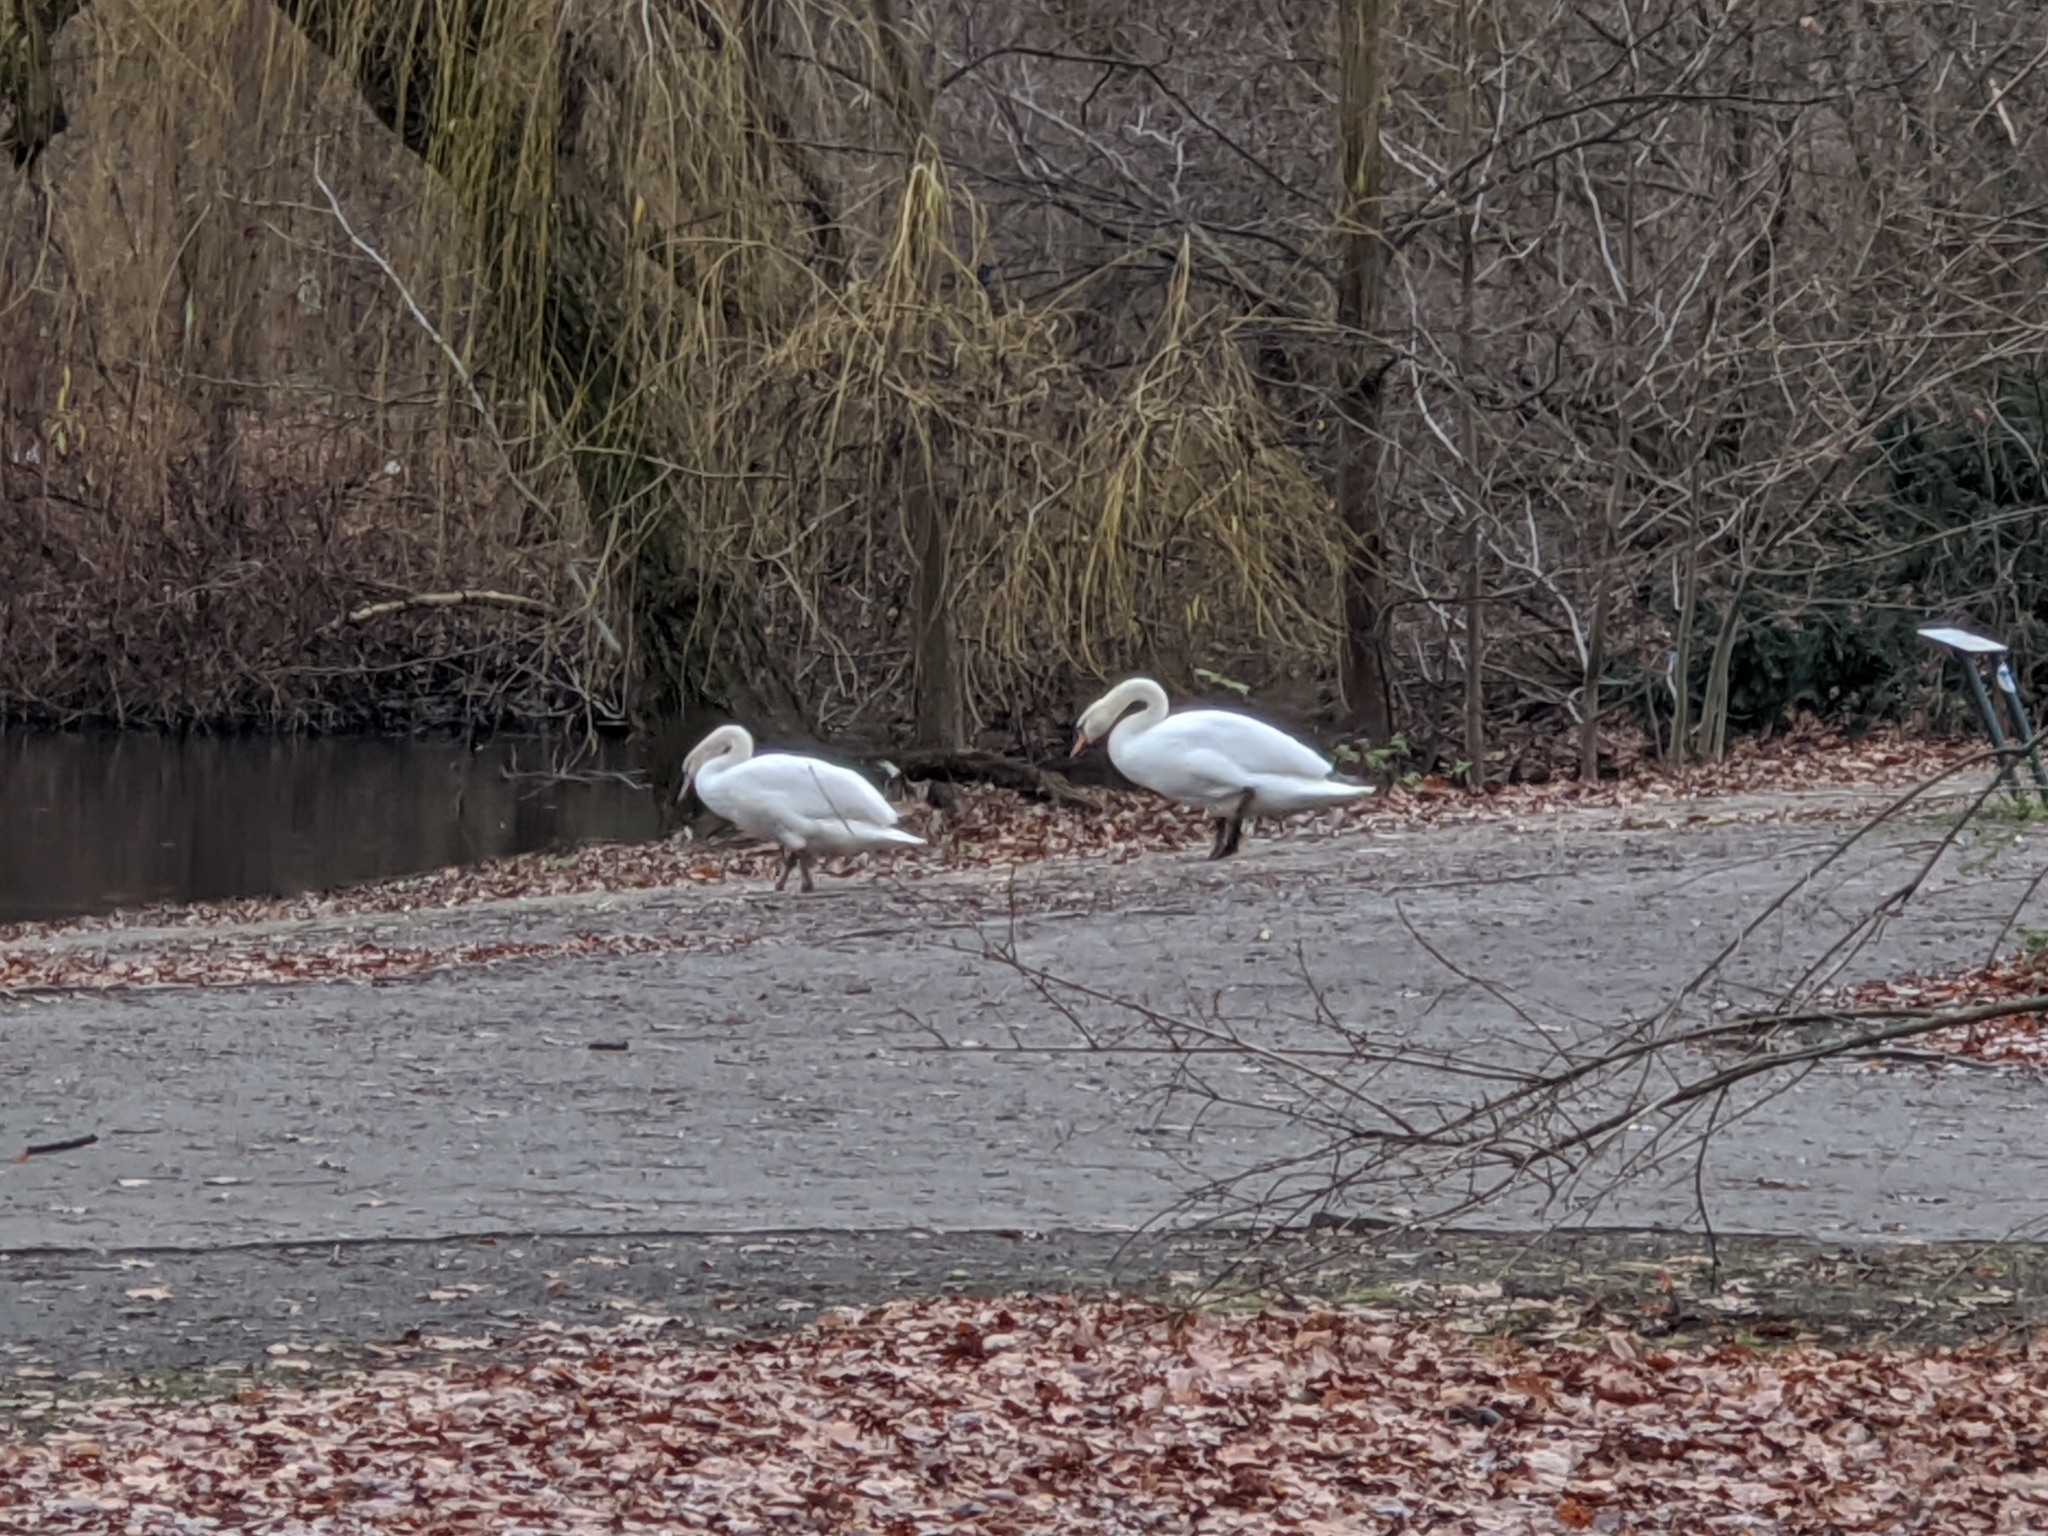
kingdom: Animalia
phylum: Chordata
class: Aves
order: Anseriformes
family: Anatidae
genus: Cygnus
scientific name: Cygnus olor
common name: Mute swan
